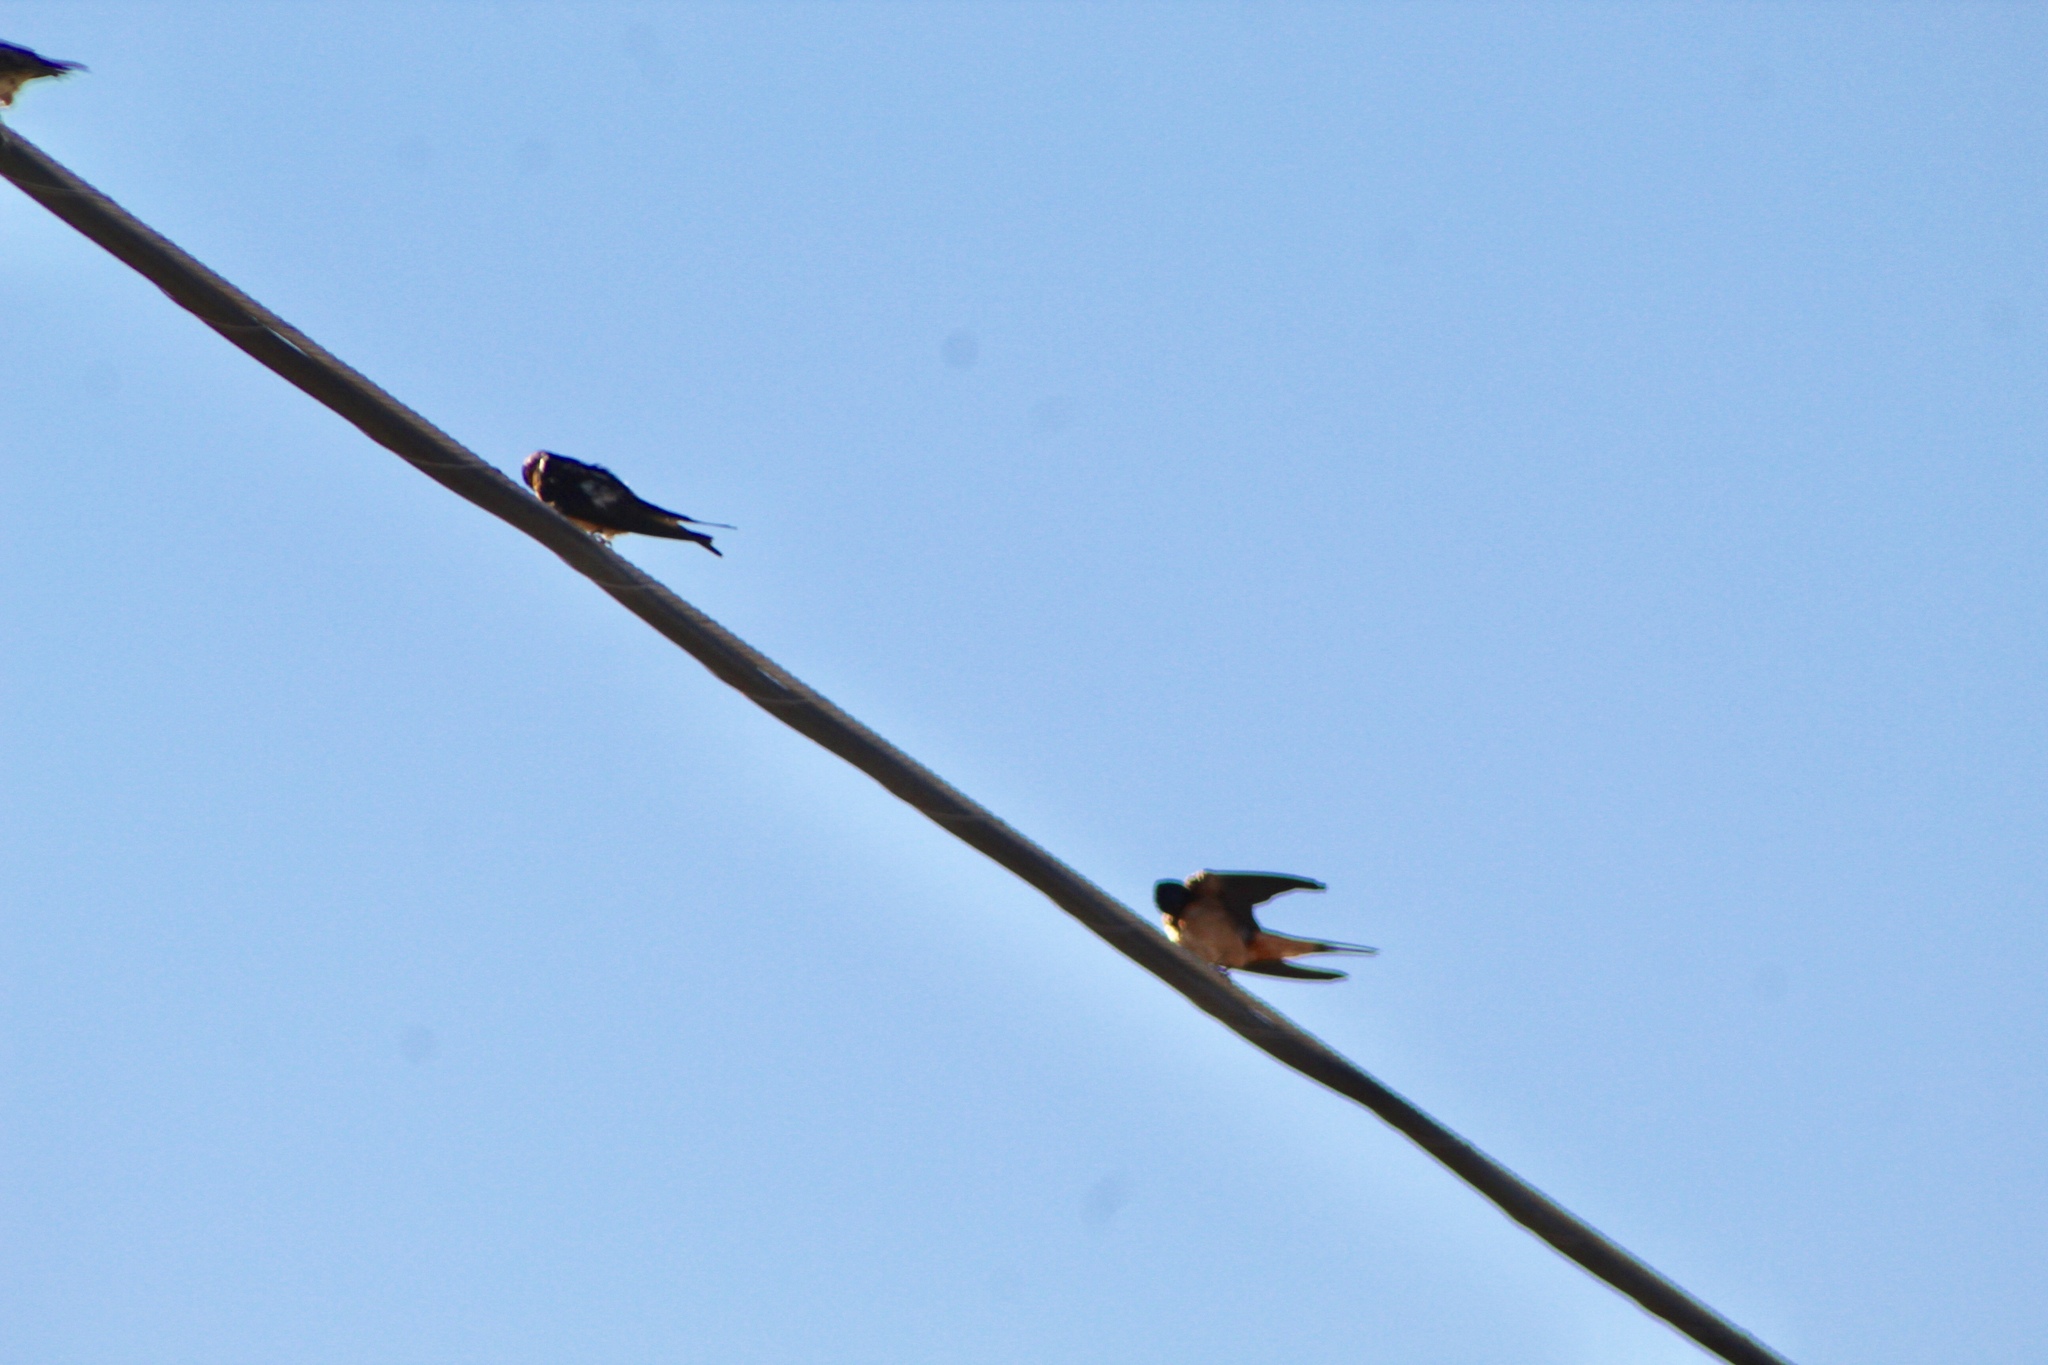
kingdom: Animalia
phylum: Chordata
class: Aves
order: Passeriformes
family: Hirundinidae
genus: Hirundo
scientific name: Hirundo rustica
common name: Barn swallow
